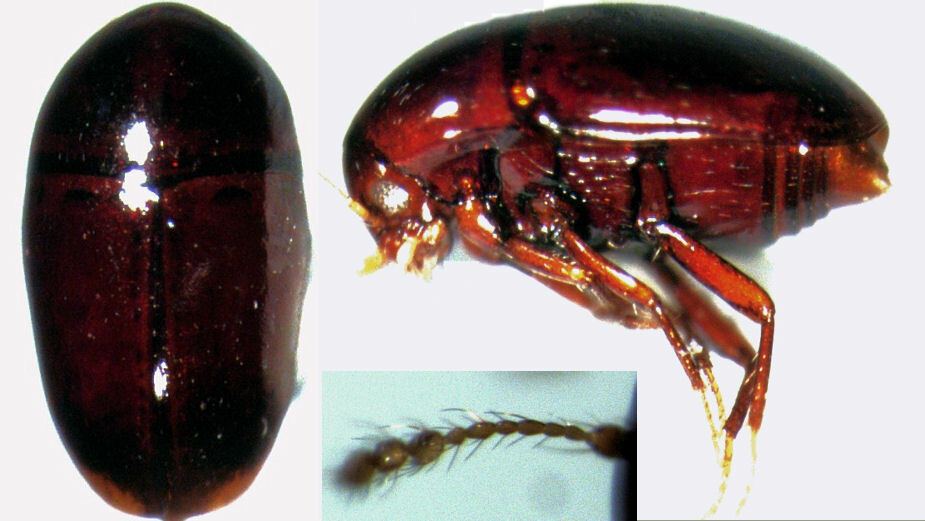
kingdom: Animalia
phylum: Arthropoda
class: Insecta
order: Coleoptera
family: Staphylinidae
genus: Baeocera
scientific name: Baeocera tenuis
